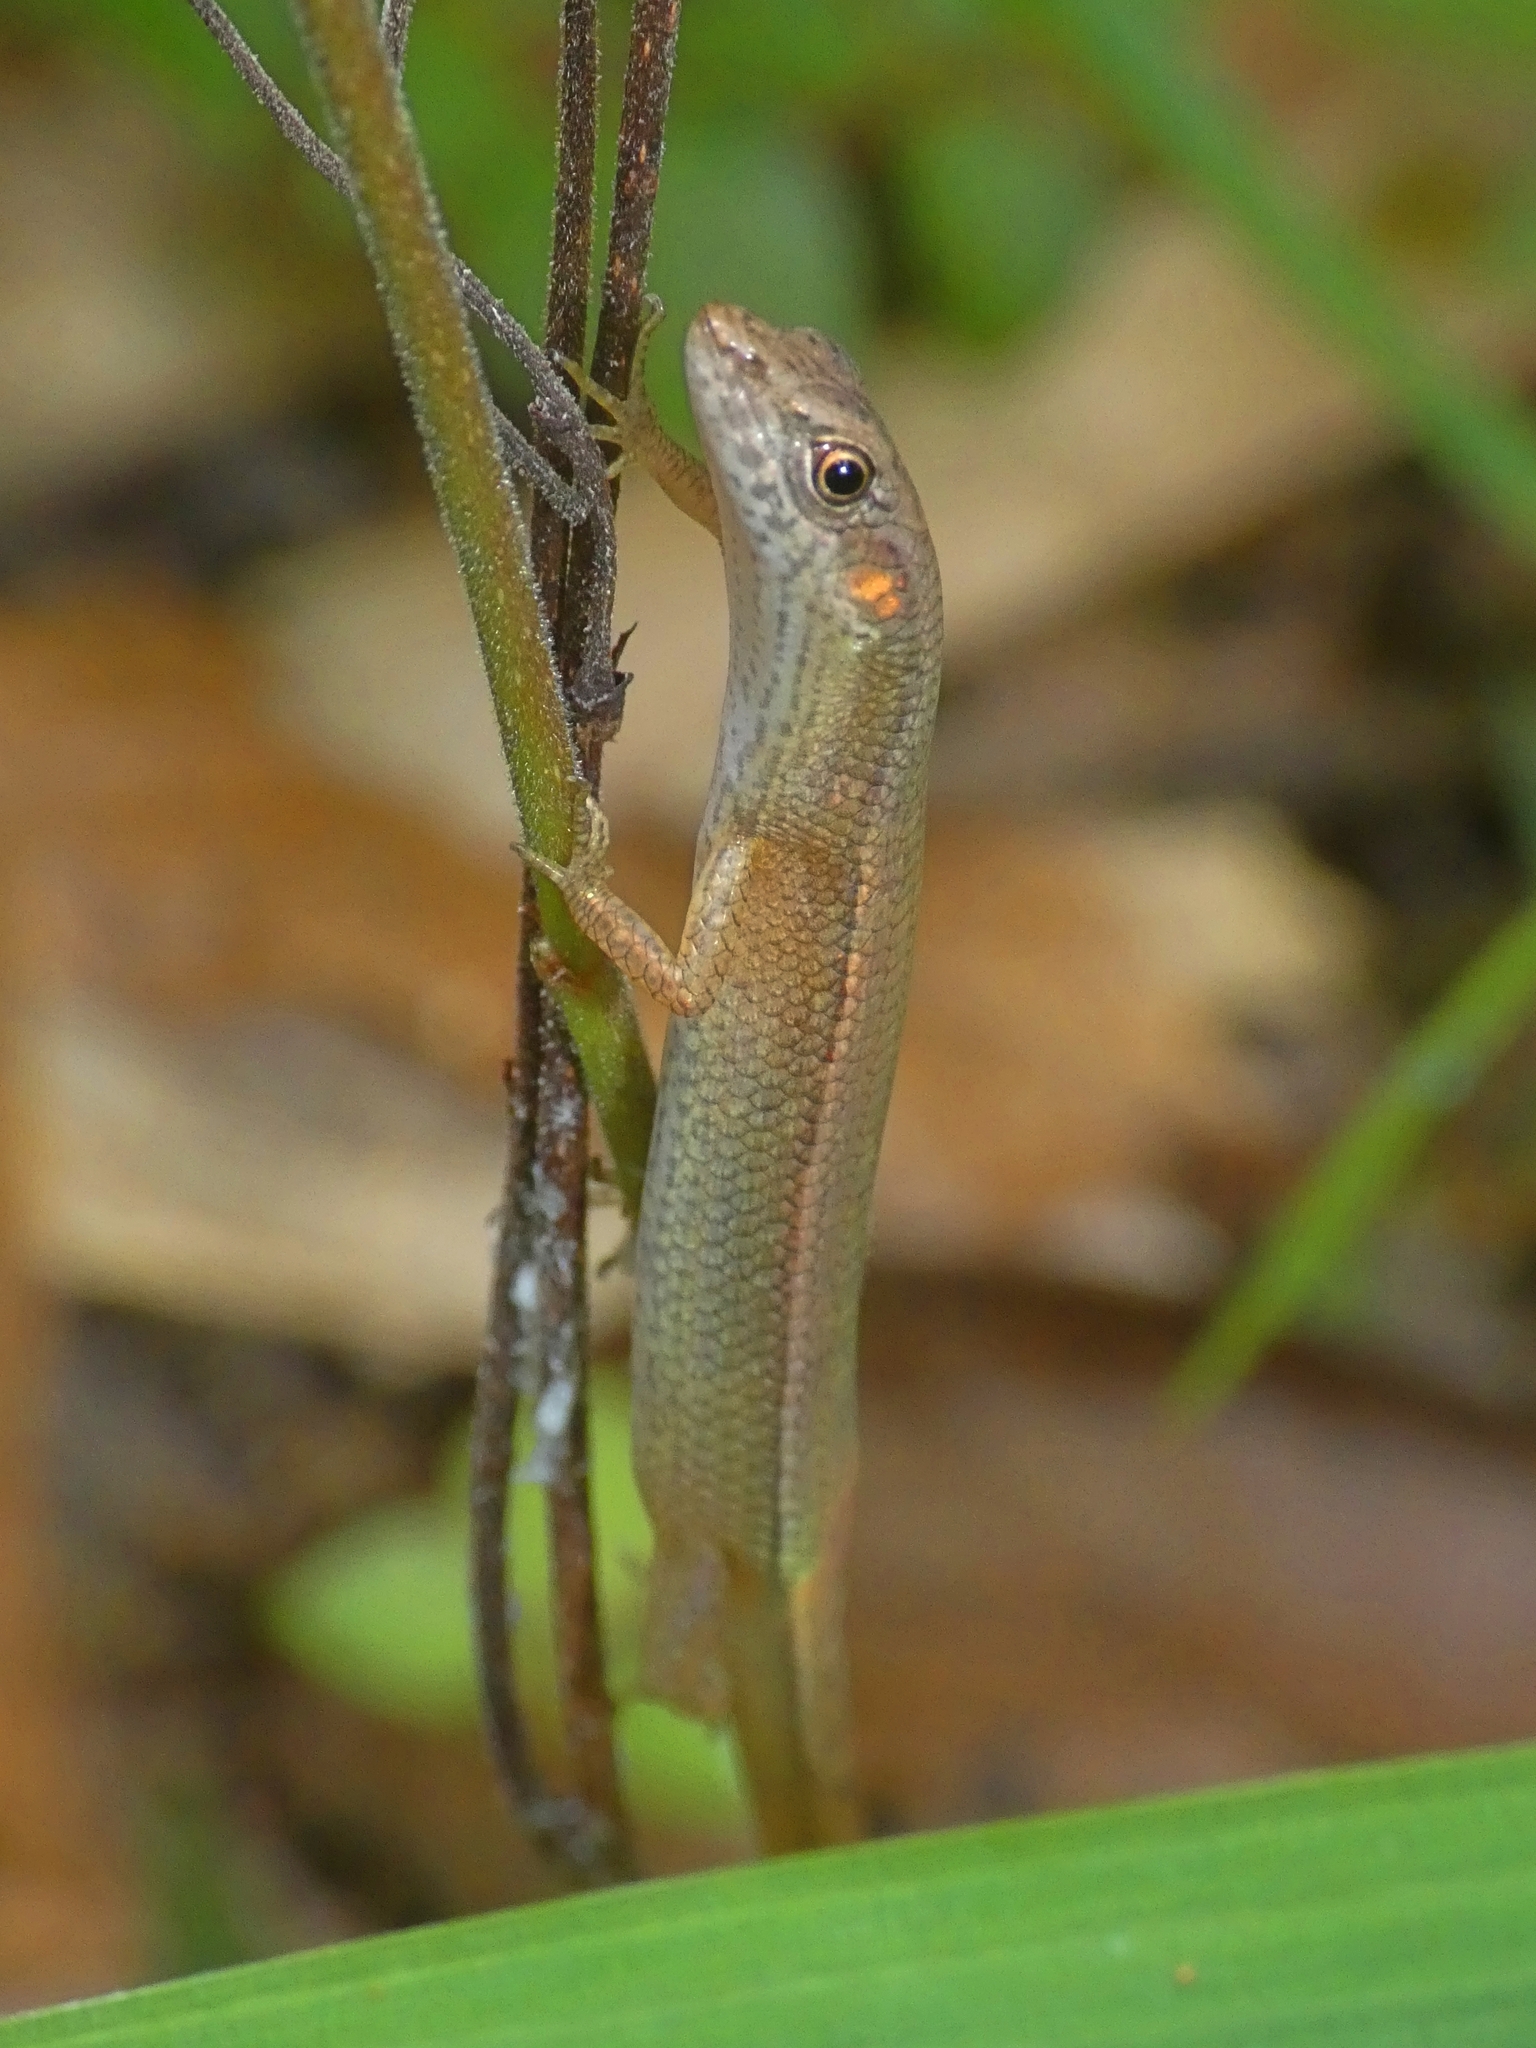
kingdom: Animalia
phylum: Chordata
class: Squamata
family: Scincidae
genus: Saproscincus
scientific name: Saproscincus lewisi
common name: Northern wet tropics shadeskink
